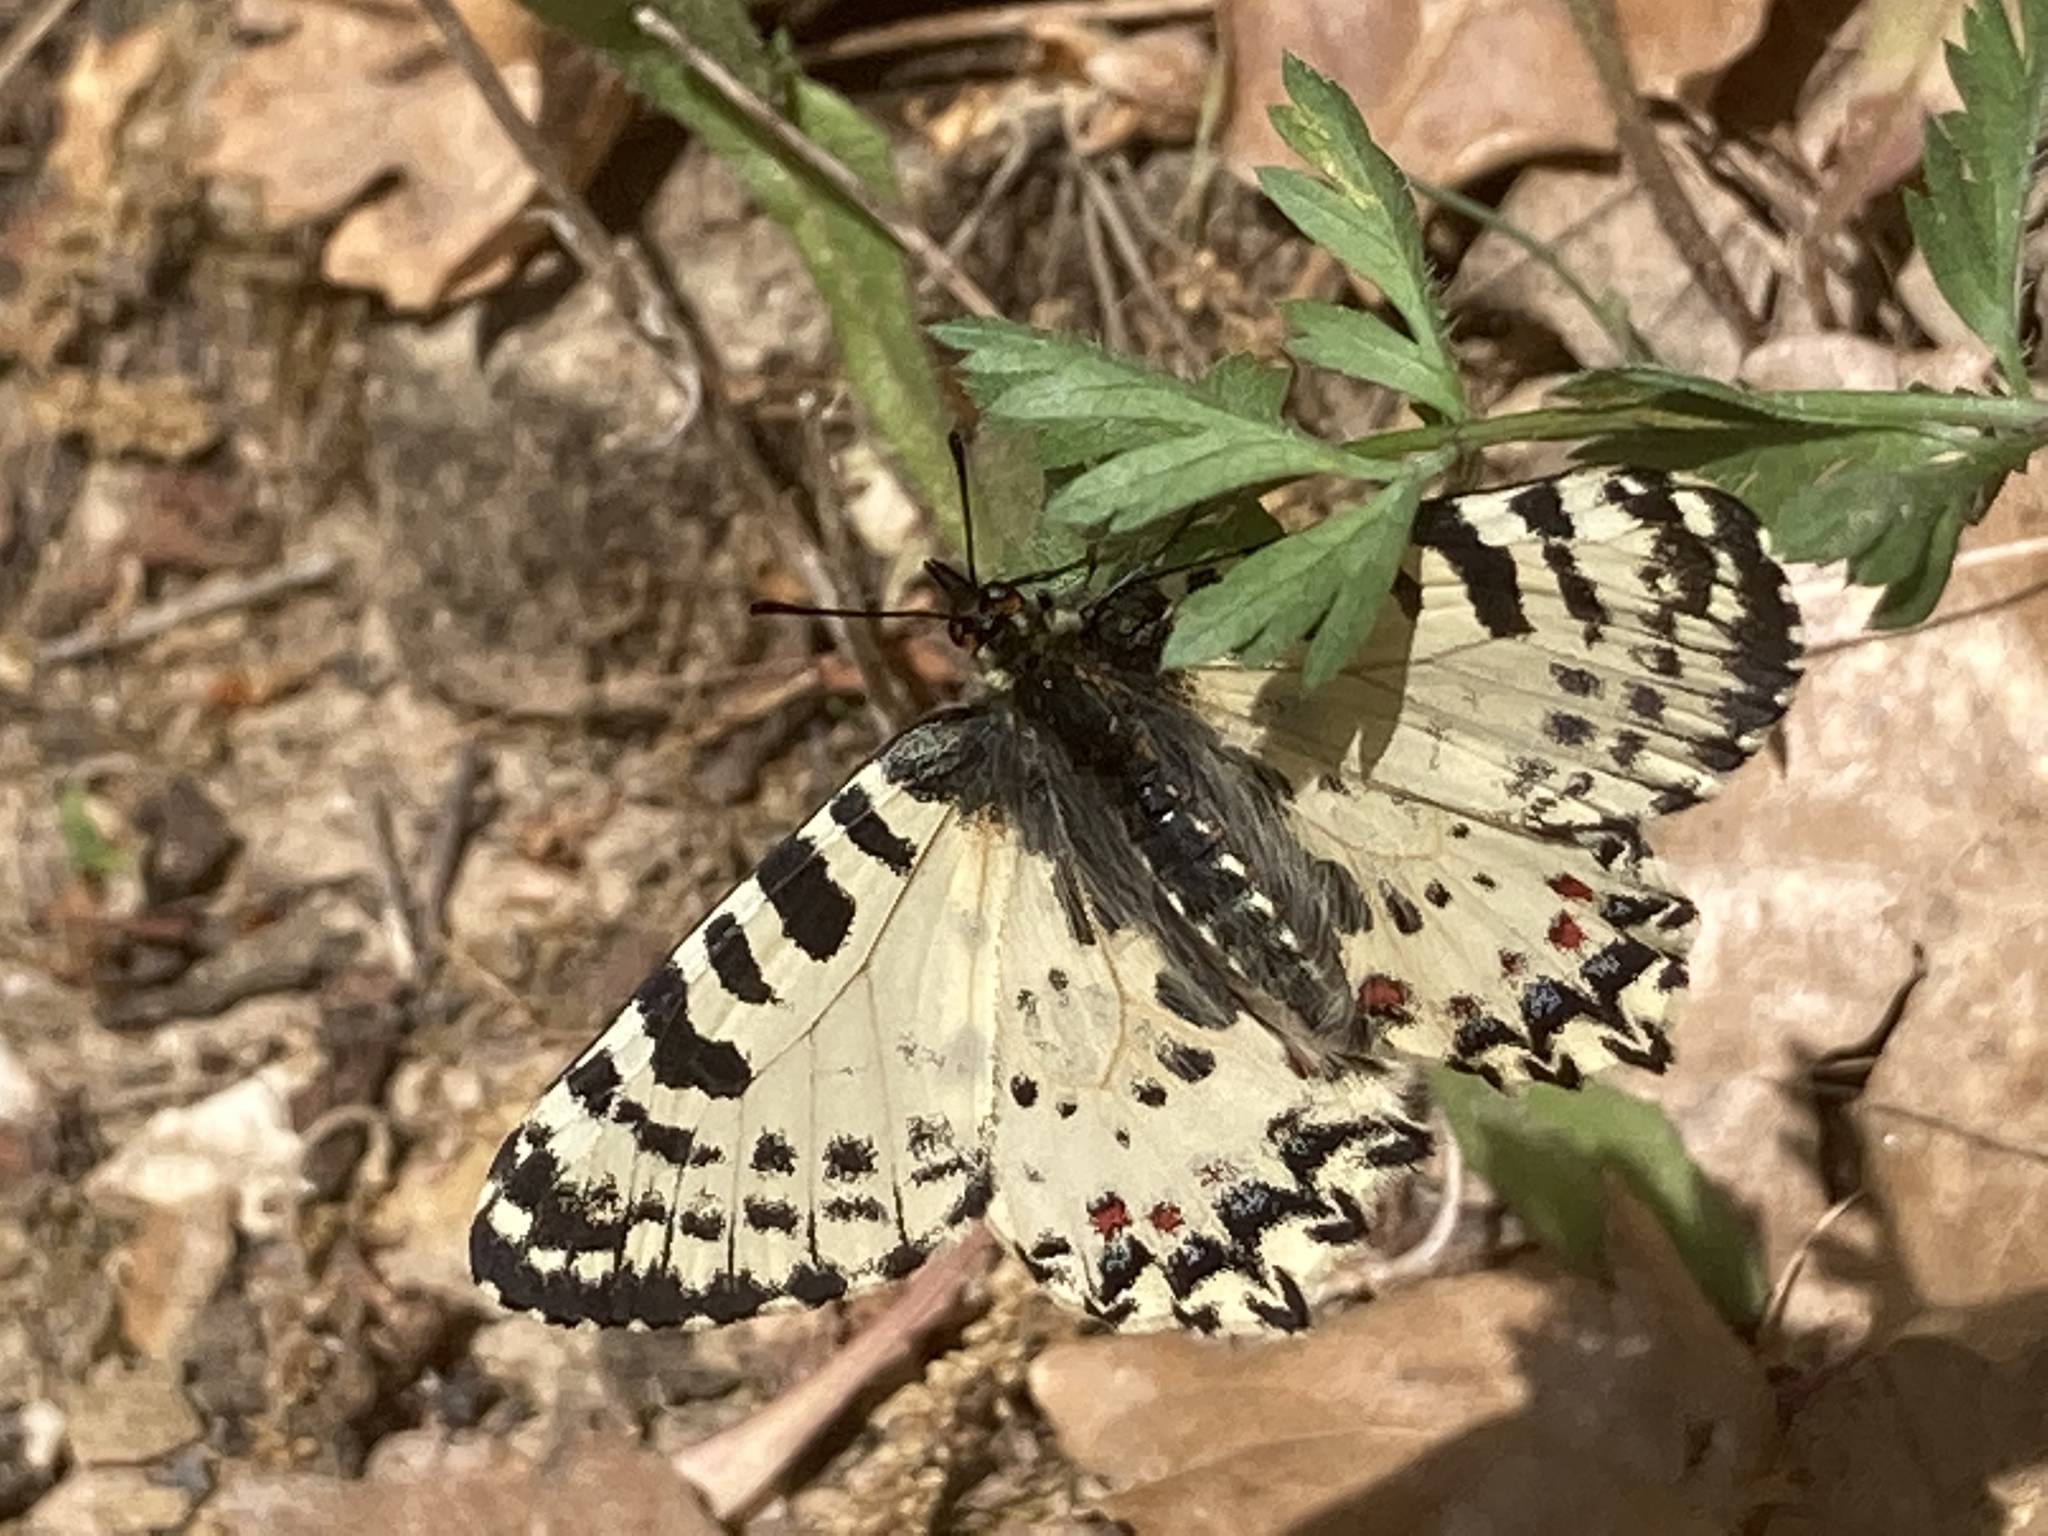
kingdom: Animalia
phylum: Arthropoda
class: Insecta
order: Lepidoptera
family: Papilionidae
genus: Zerynthia
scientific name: Zerynthia cretica
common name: Cretan festoon
